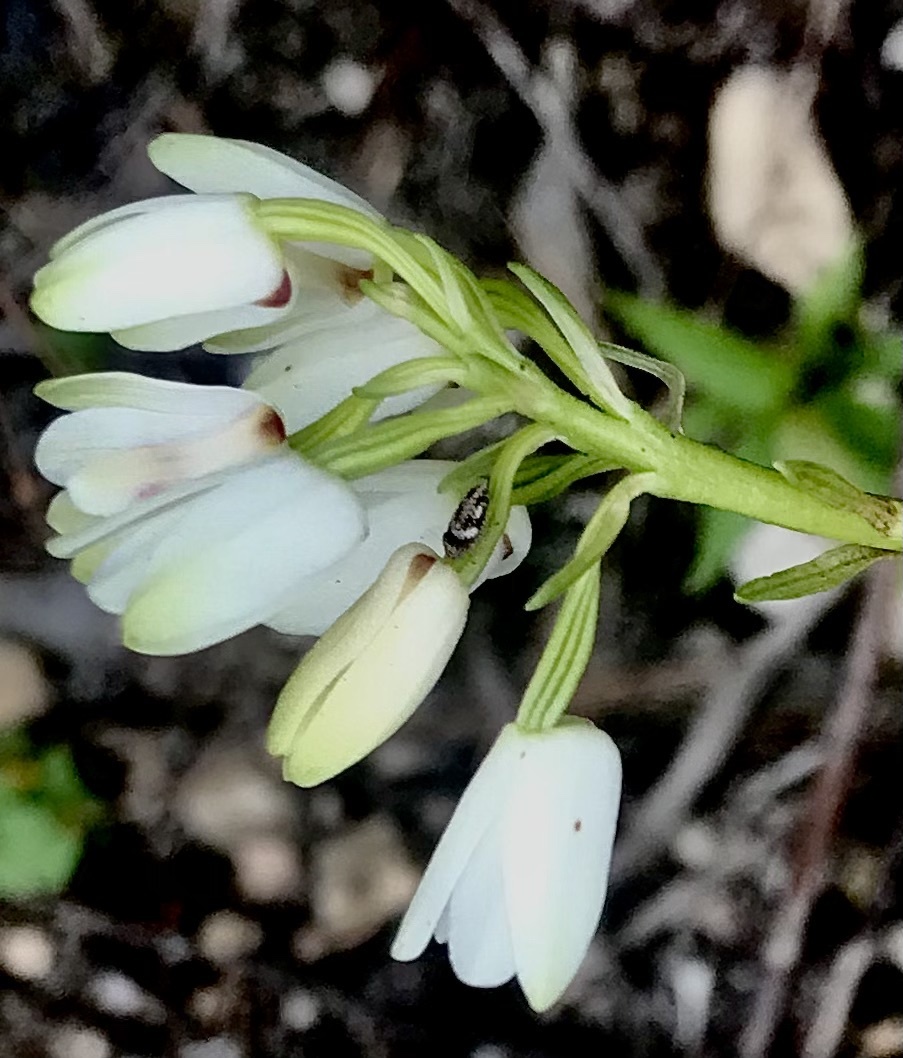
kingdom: Plantae
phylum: Tracheophyta
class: Liliopsida
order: Asparagales
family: Orchidaceae
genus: Eulophia
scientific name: Eulophia aculeata
